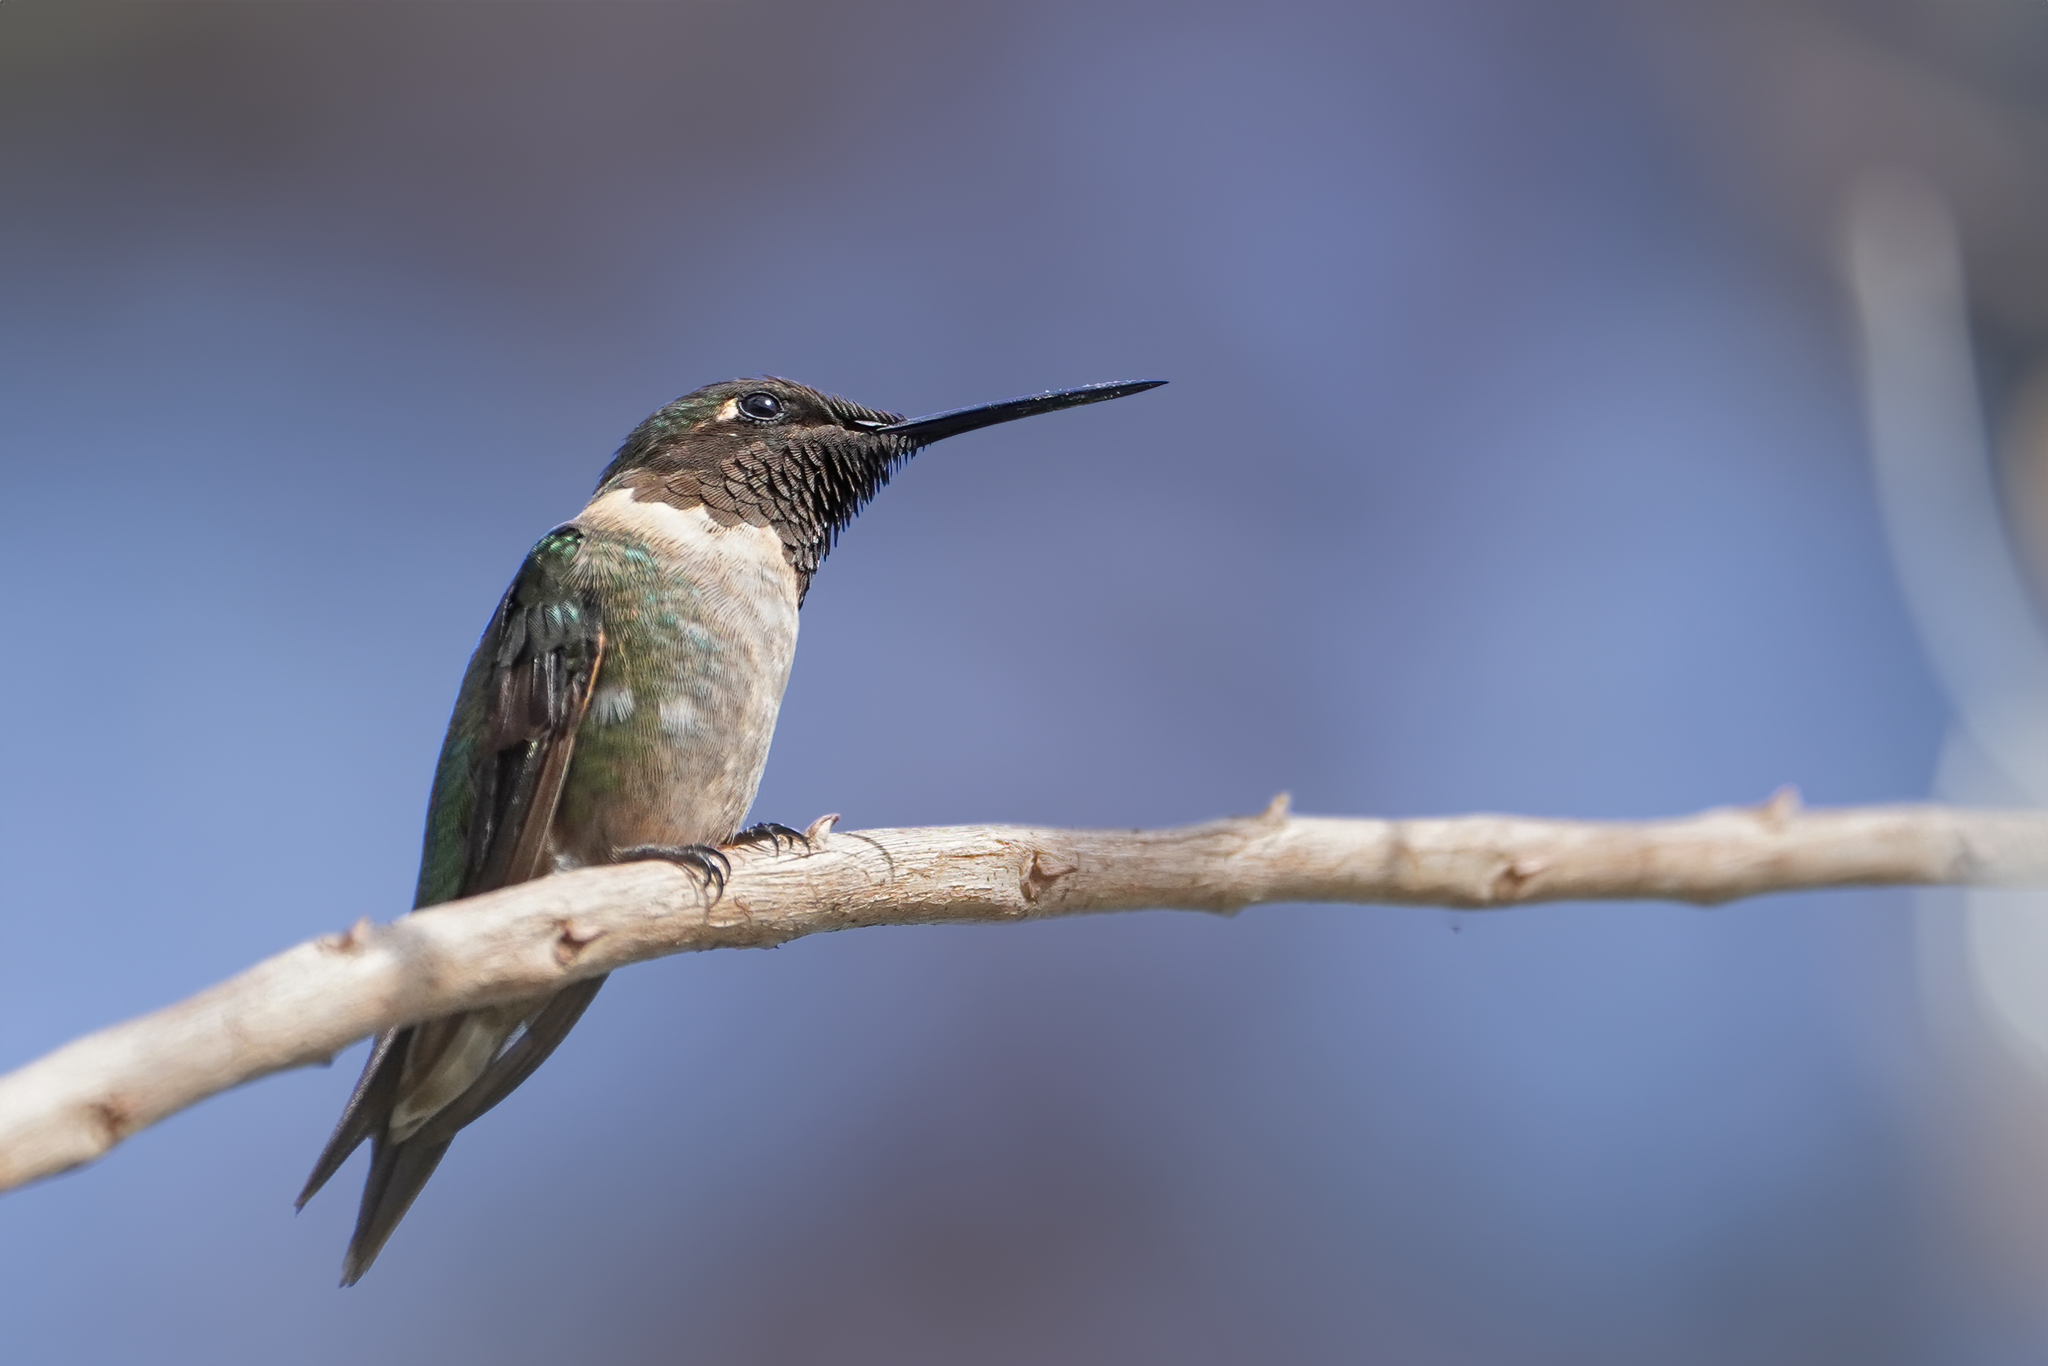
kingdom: Animalia
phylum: Chordata
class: Aves
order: Apodiformes
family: Trochilidae
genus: Archilochus
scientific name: Archilochus colubris
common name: Ruby-throated hummingbird
